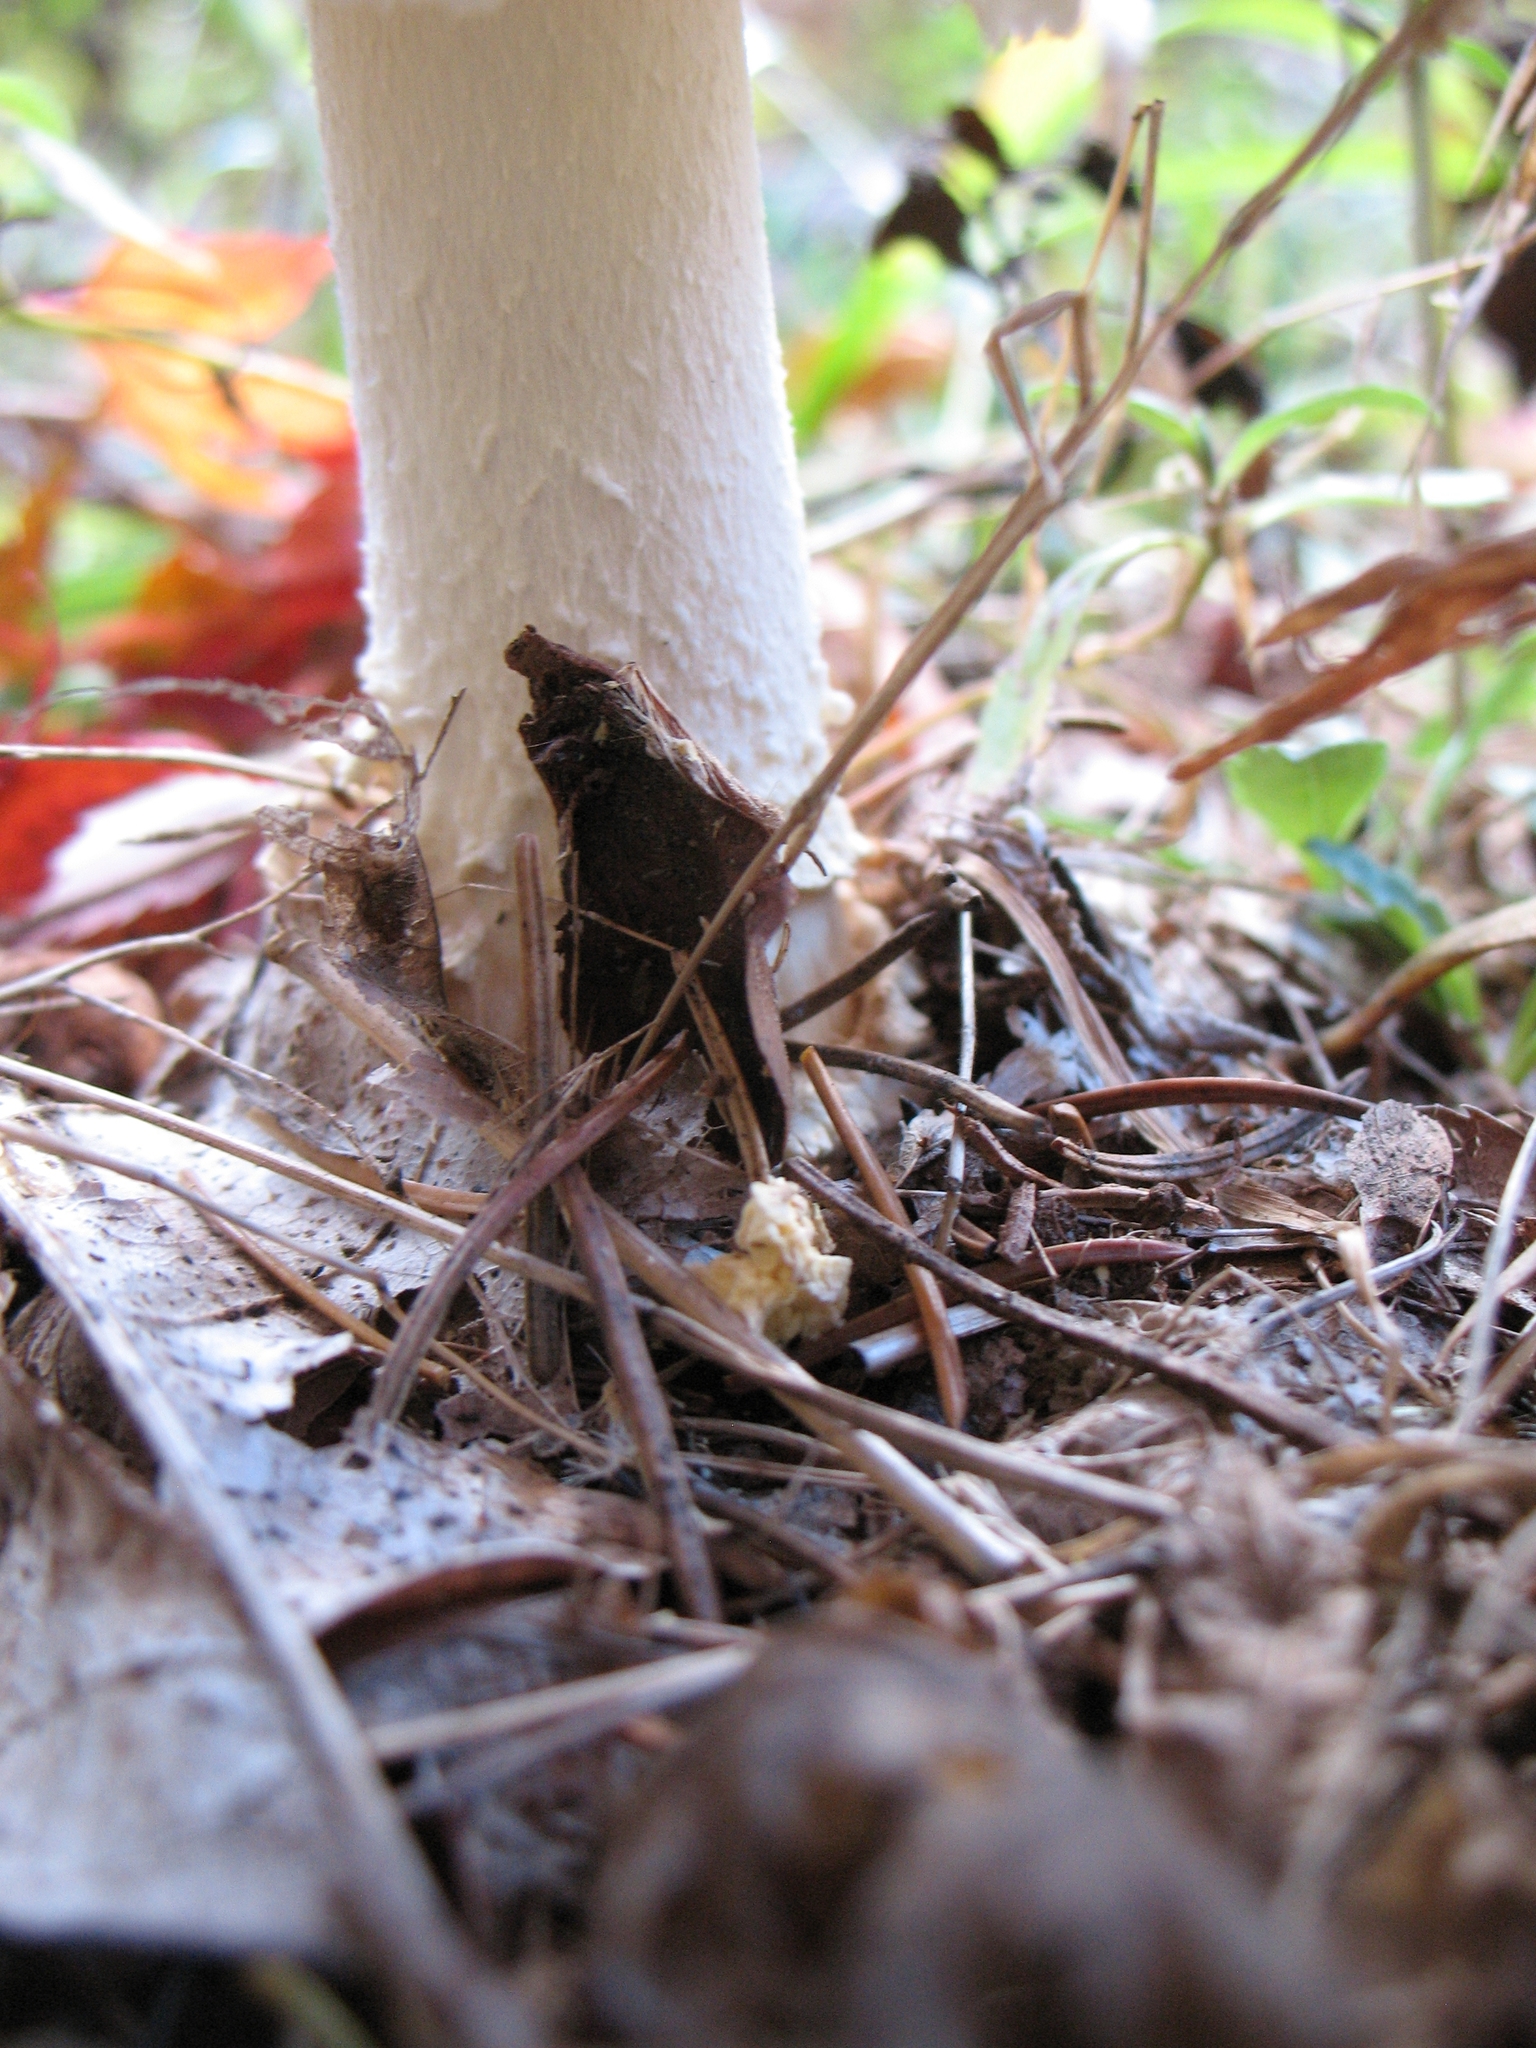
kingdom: Fungi
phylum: Basidiomycota
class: Agaricomycetes
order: Agaricales
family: Amanitaceae
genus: Amanita
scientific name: Amanita muscaria
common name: Fly agaric
